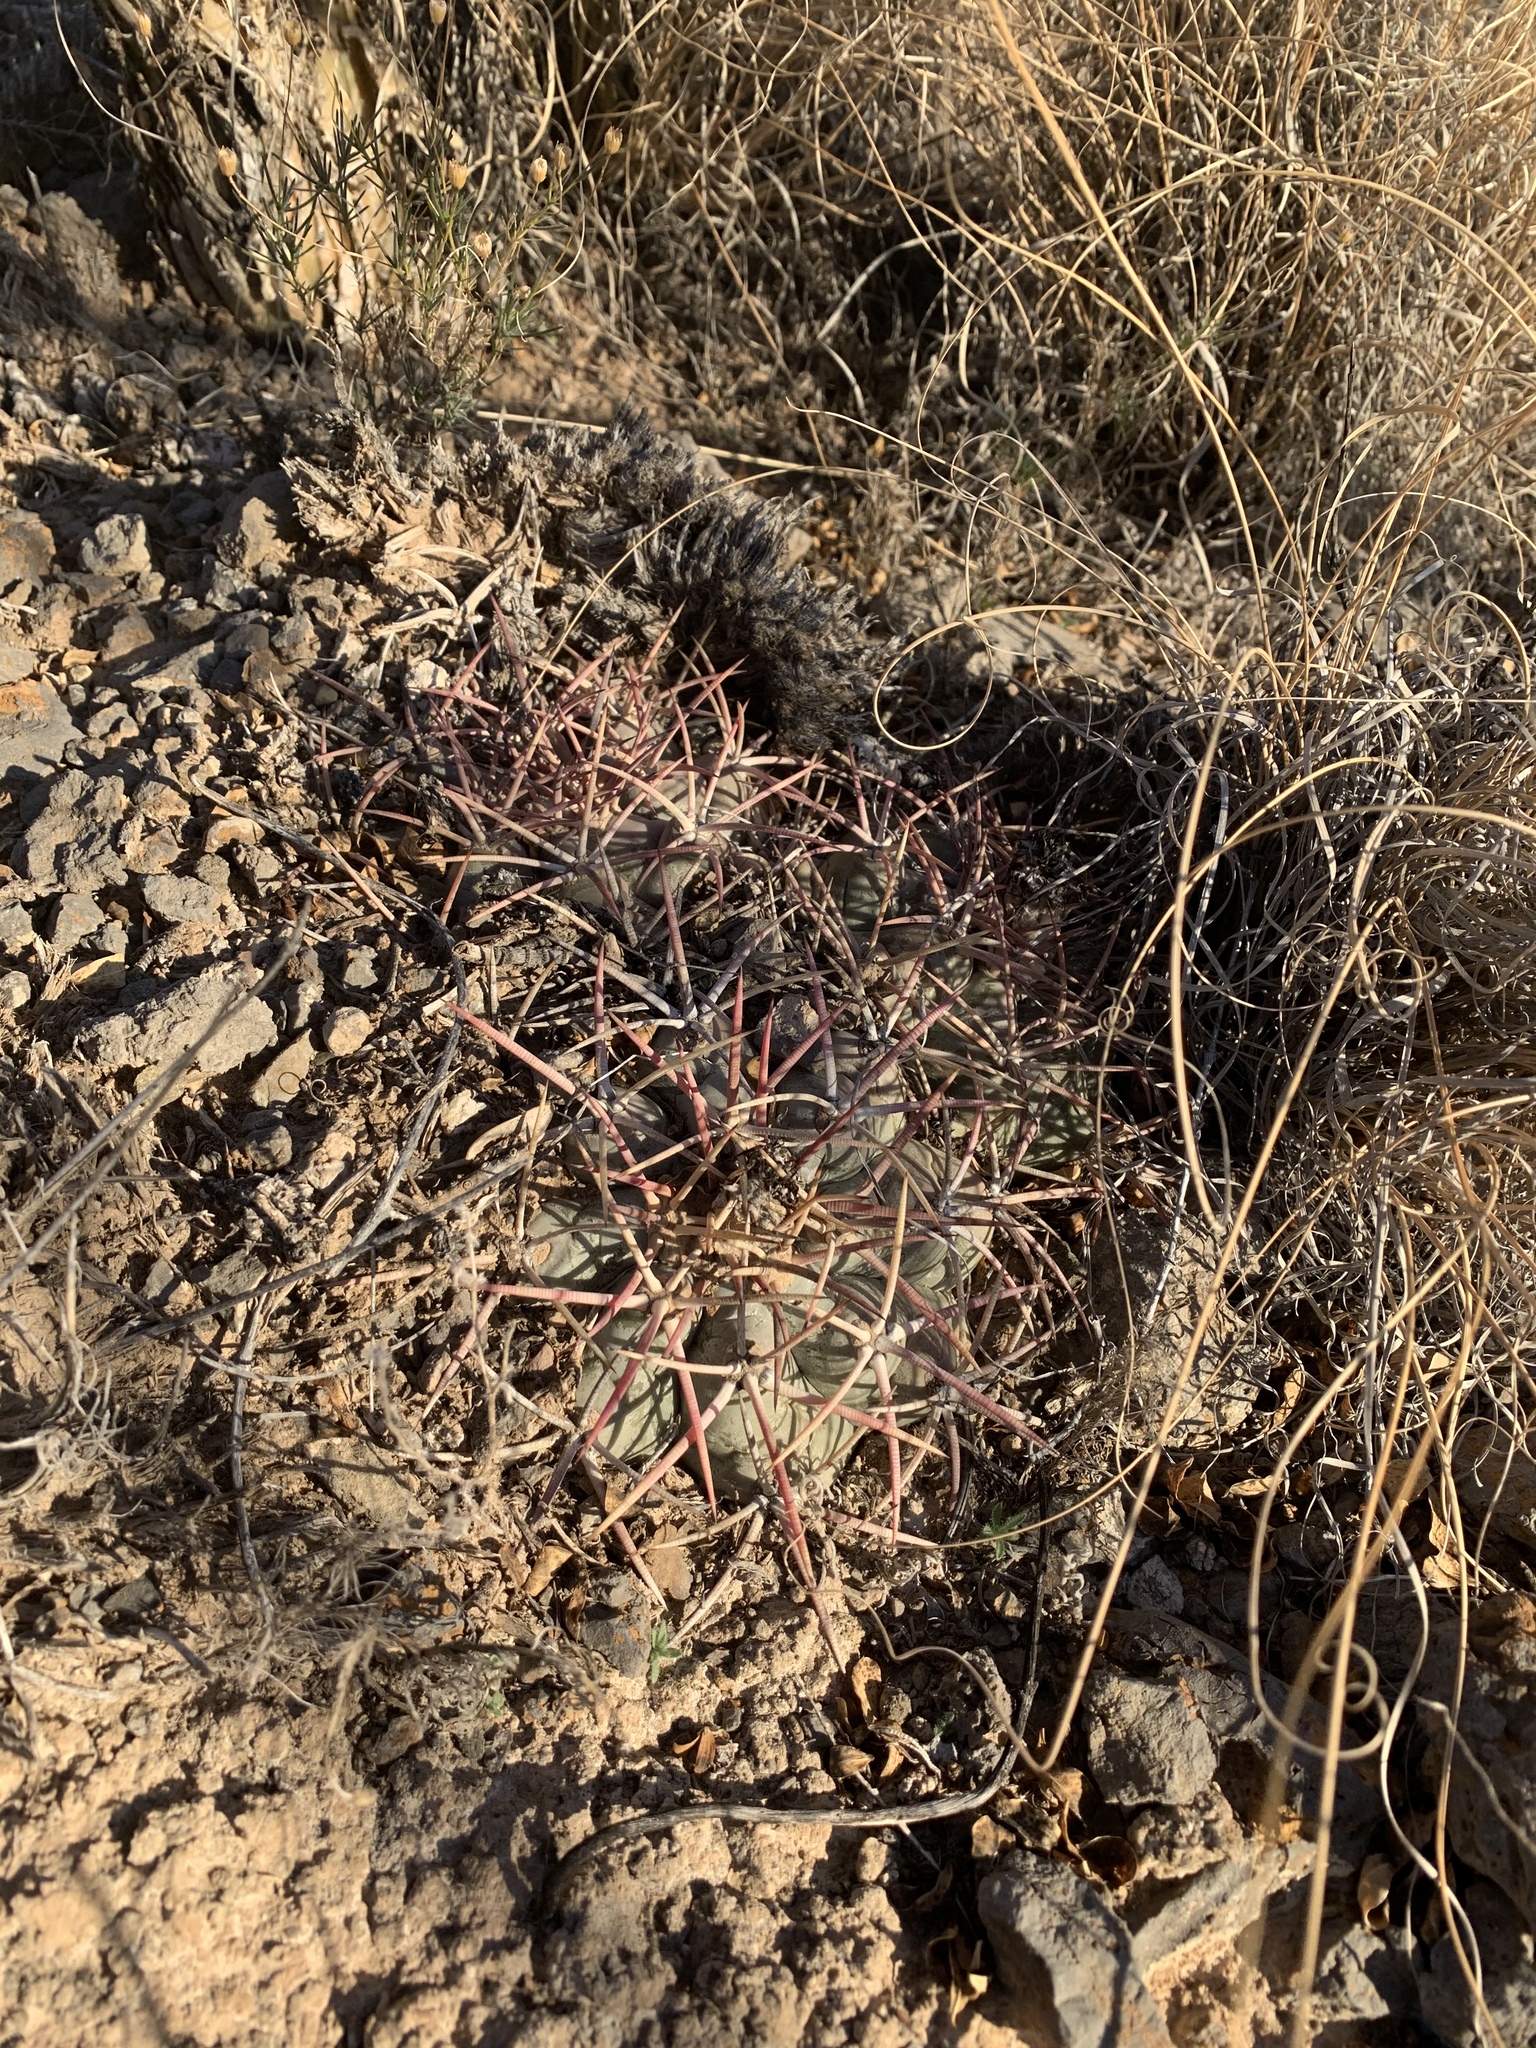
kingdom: Plantae
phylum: Tracheophyta
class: Magnoliopsida
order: Caryophyllales
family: Cactaceae
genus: Echinocactus
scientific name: Echinocactus horizonthalonius
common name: Devilshead
